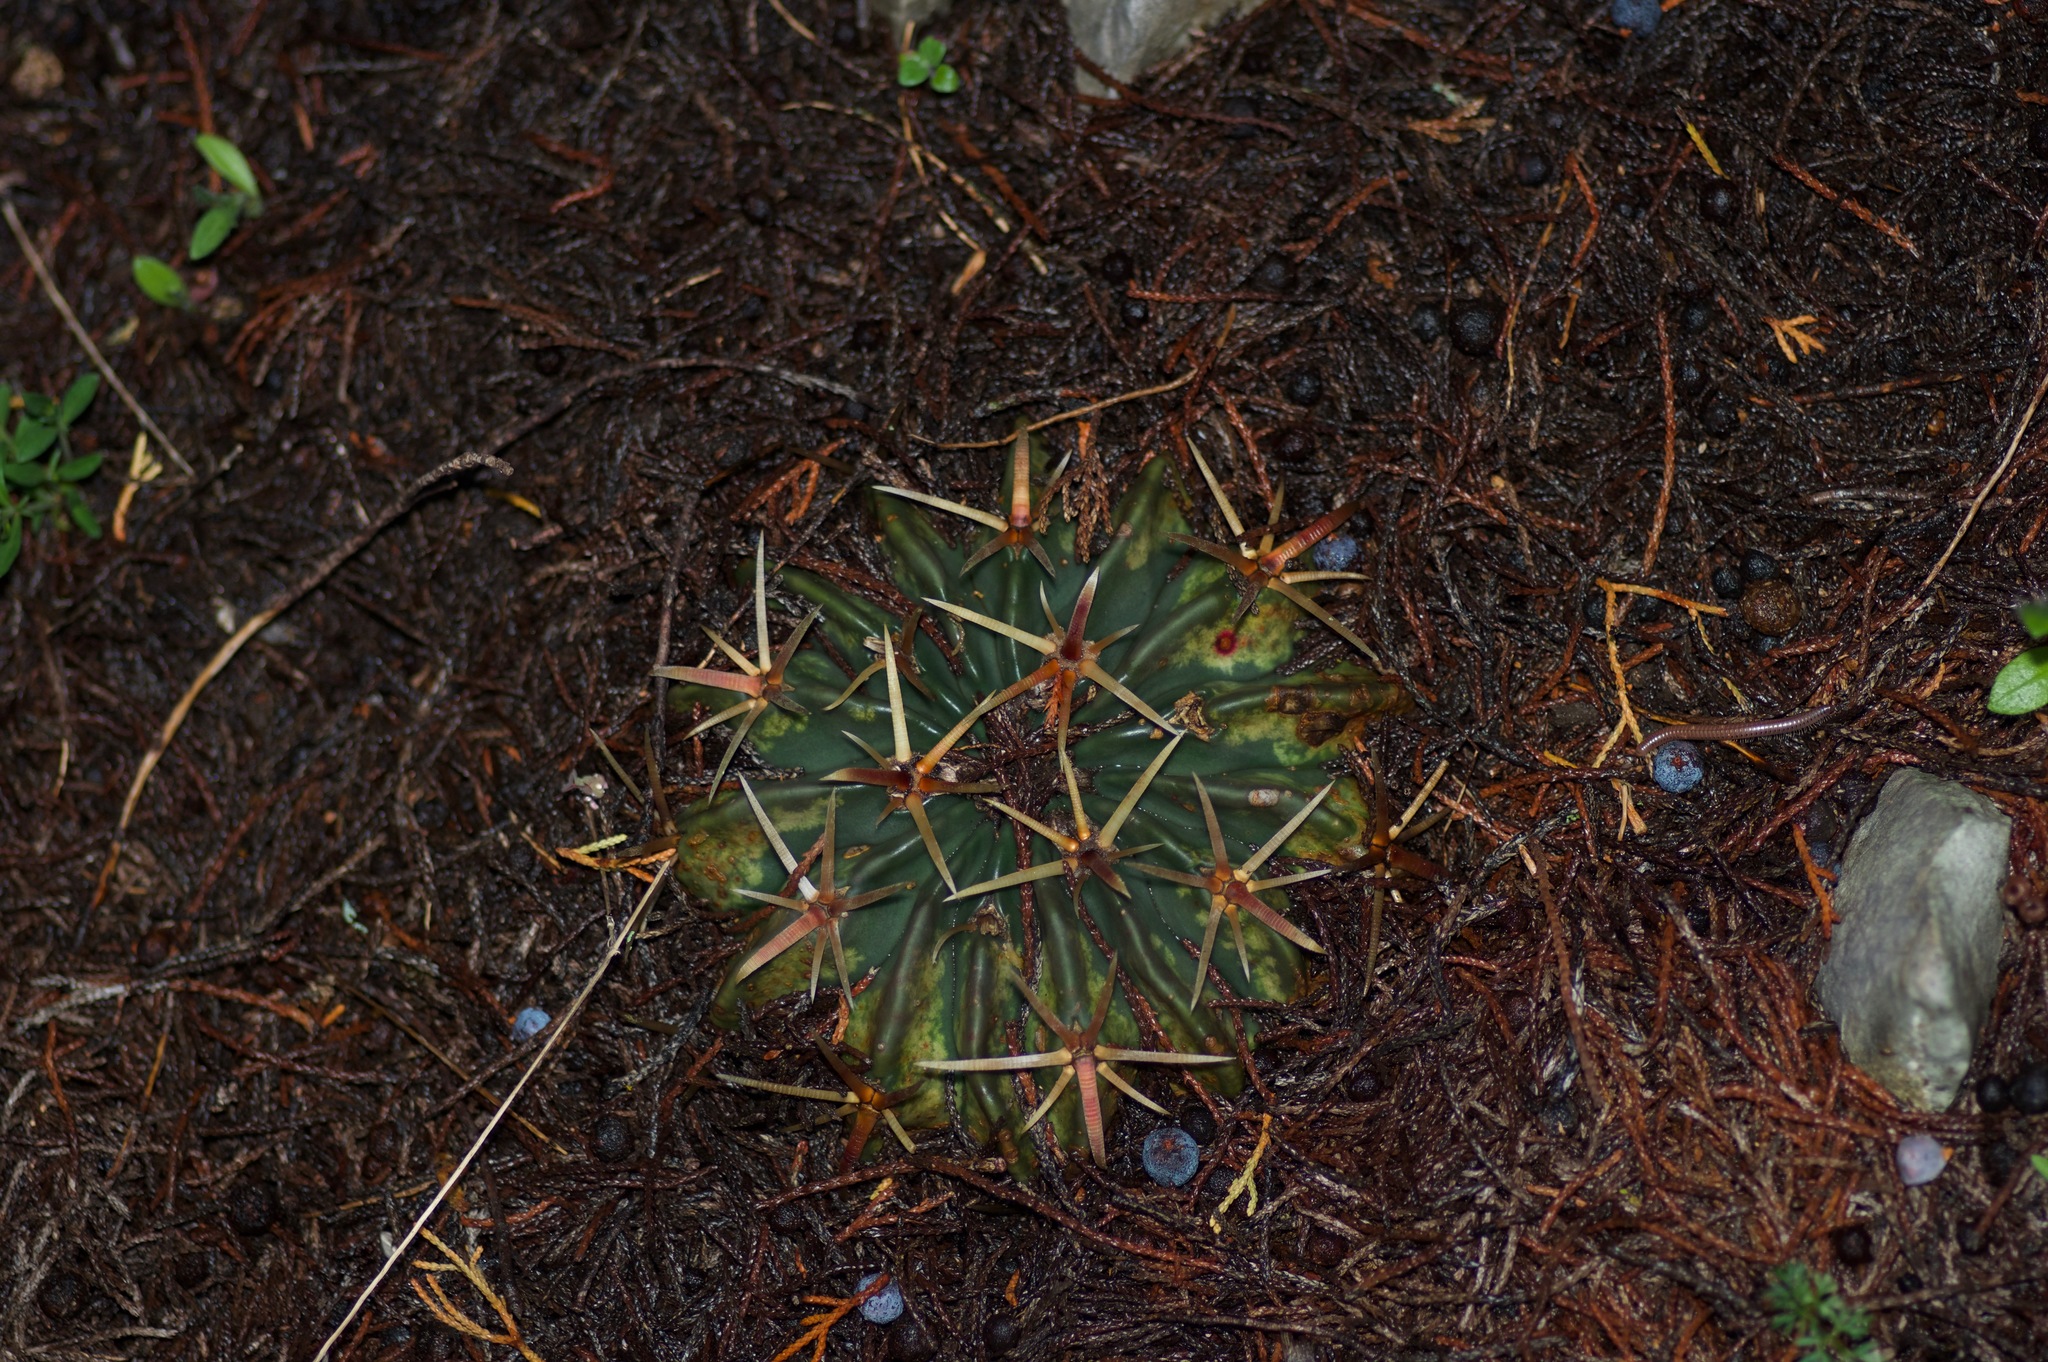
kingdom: Plantae
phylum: Tracheophyta
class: Magnoliopsida
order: Caryophyllales
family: Cactaceae
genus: Echinocactus
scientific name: Echinocactus texensis
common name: Devil's pincushion
